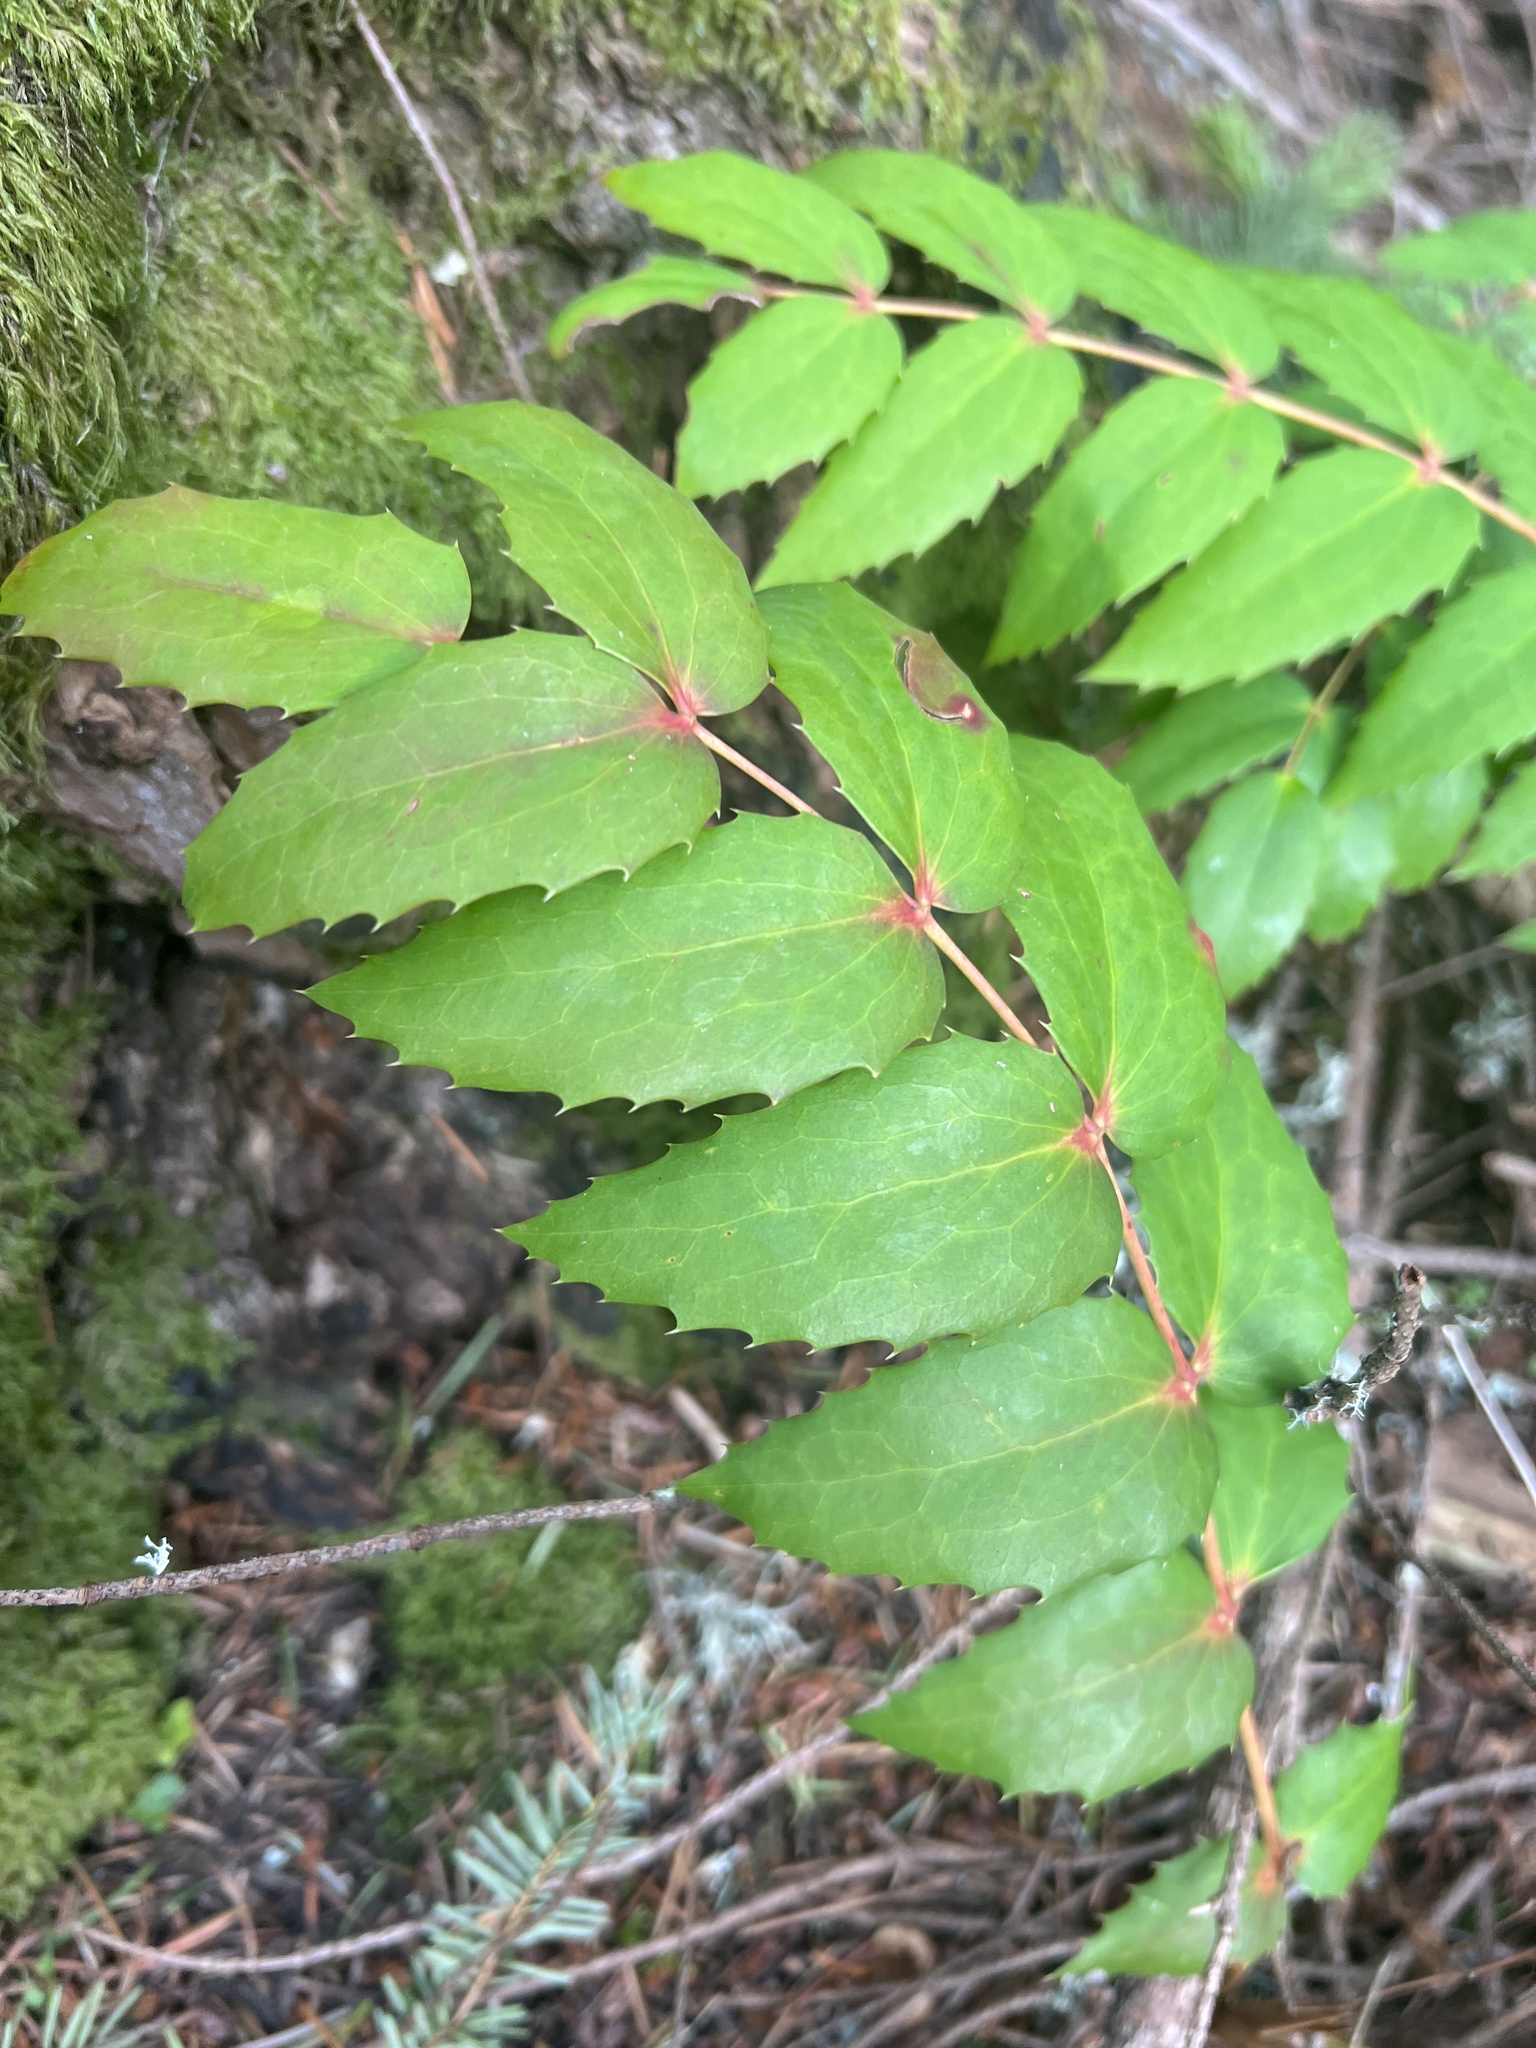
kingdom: Plantae
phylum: Tracheophyta
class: Magnoliopsida
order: Ranunculales
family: Berberidaceae
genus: Mahonia
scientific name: Mahonia nervosa
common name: Cascade oregon-grape
